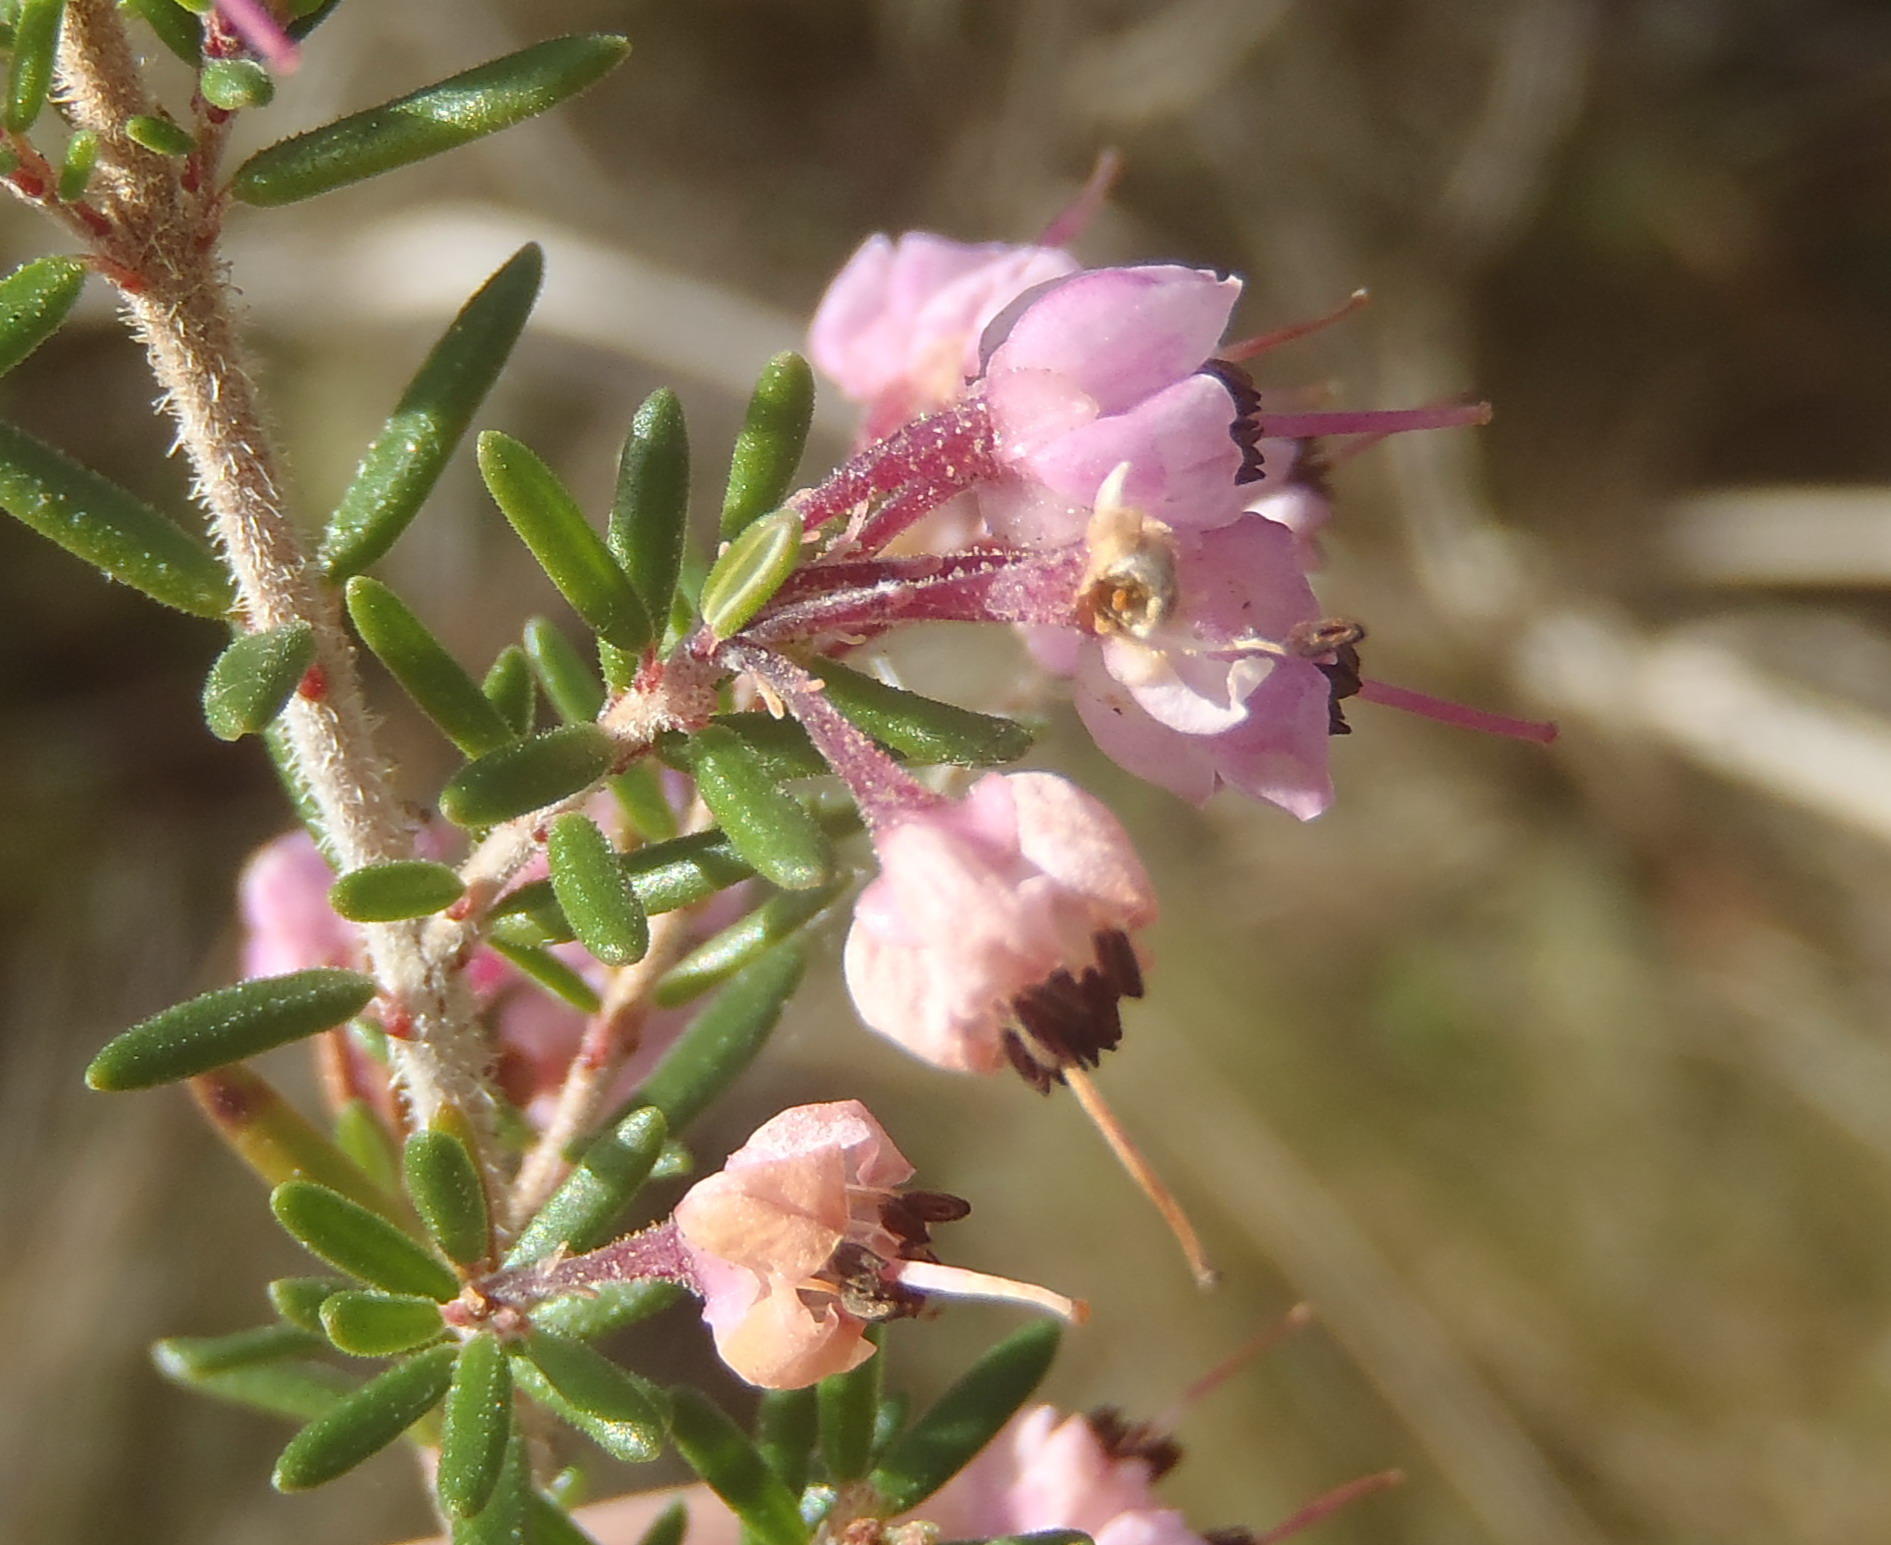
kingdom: Plantae
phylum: Tracheophyta
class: Magnoliopsida
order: Ericales
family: Ericaceae
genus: Erica
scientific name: Erica canaliculata
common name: Hairy grey heather
